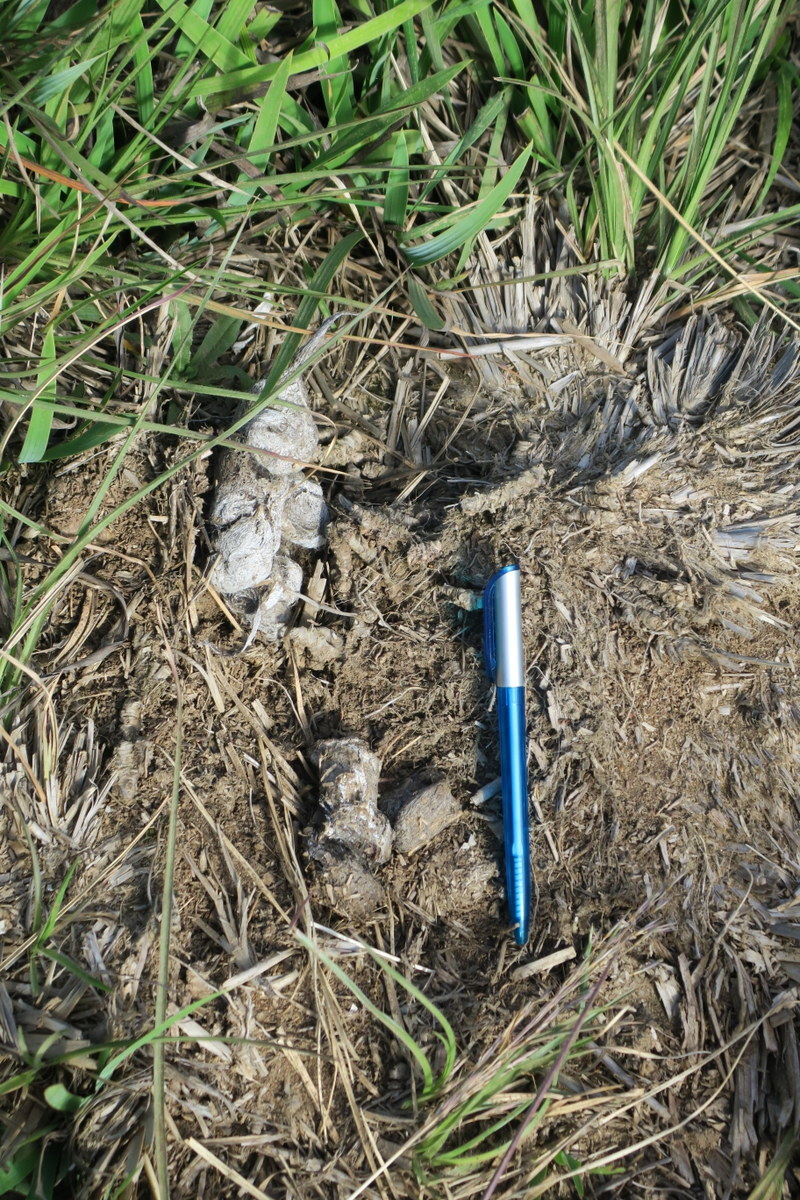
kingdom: Animalia
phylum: Chordata
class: Mammalia
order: Carnivora
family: Felidae
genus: Panthera
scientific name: Panthera pardus
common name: Leopard
